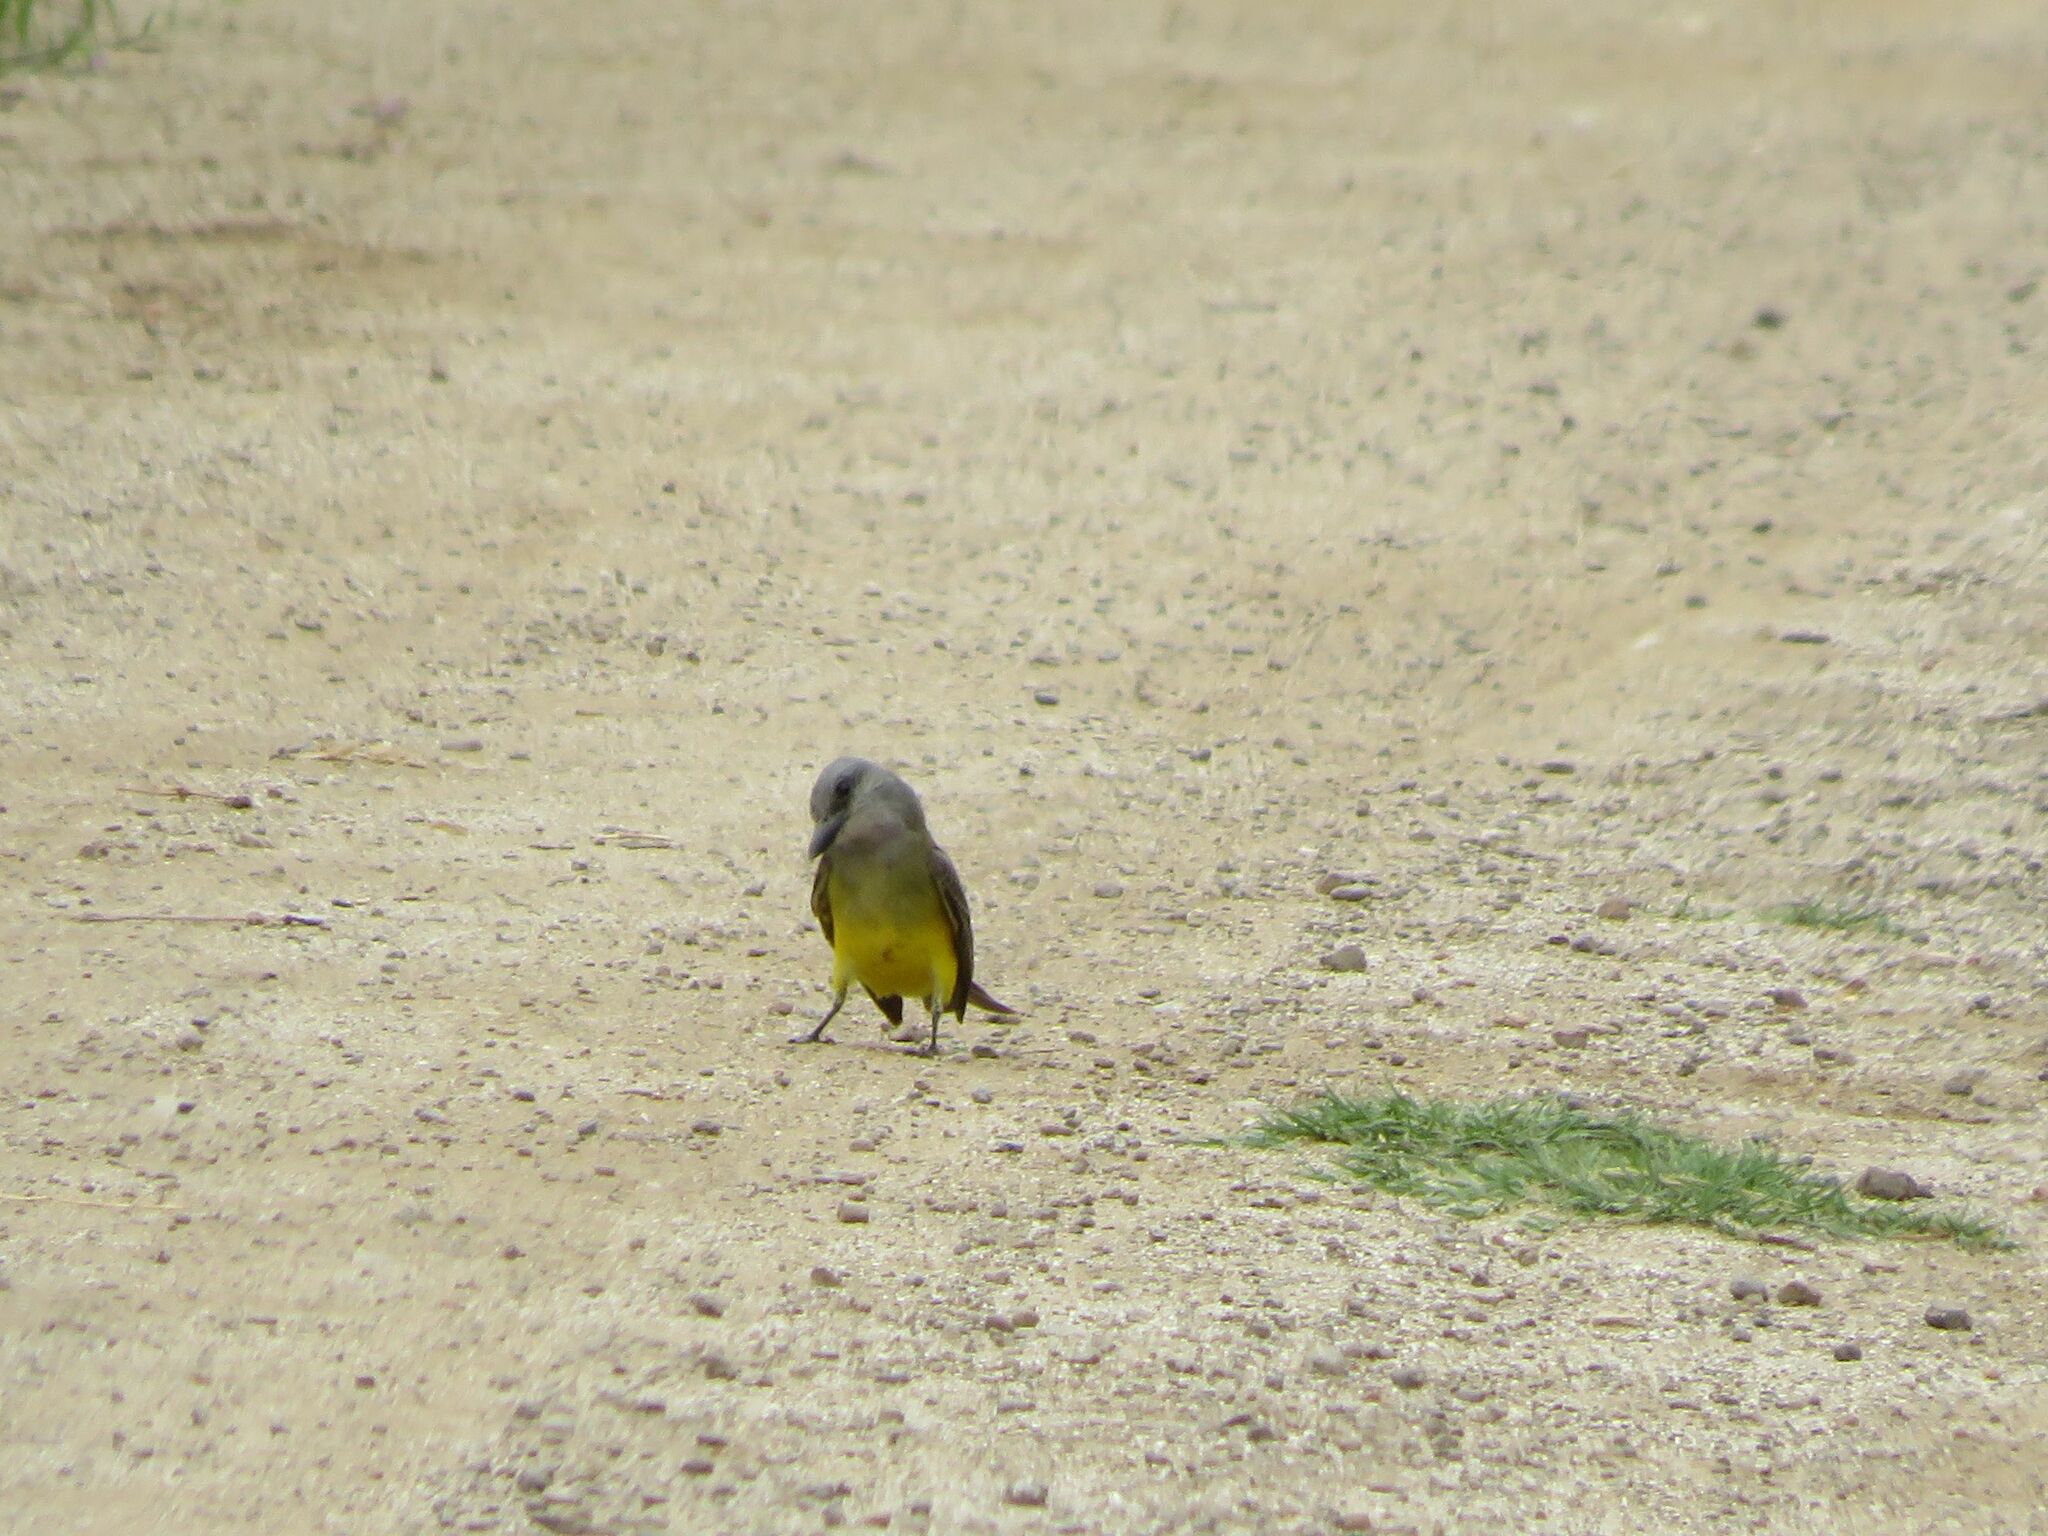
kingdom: Animalia
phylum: Chordata
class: Aves
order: Passeriformes
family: Tyrannidae
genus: Tyrannus
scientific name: Tyrannus melancholicus
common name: Tropical kingbird
